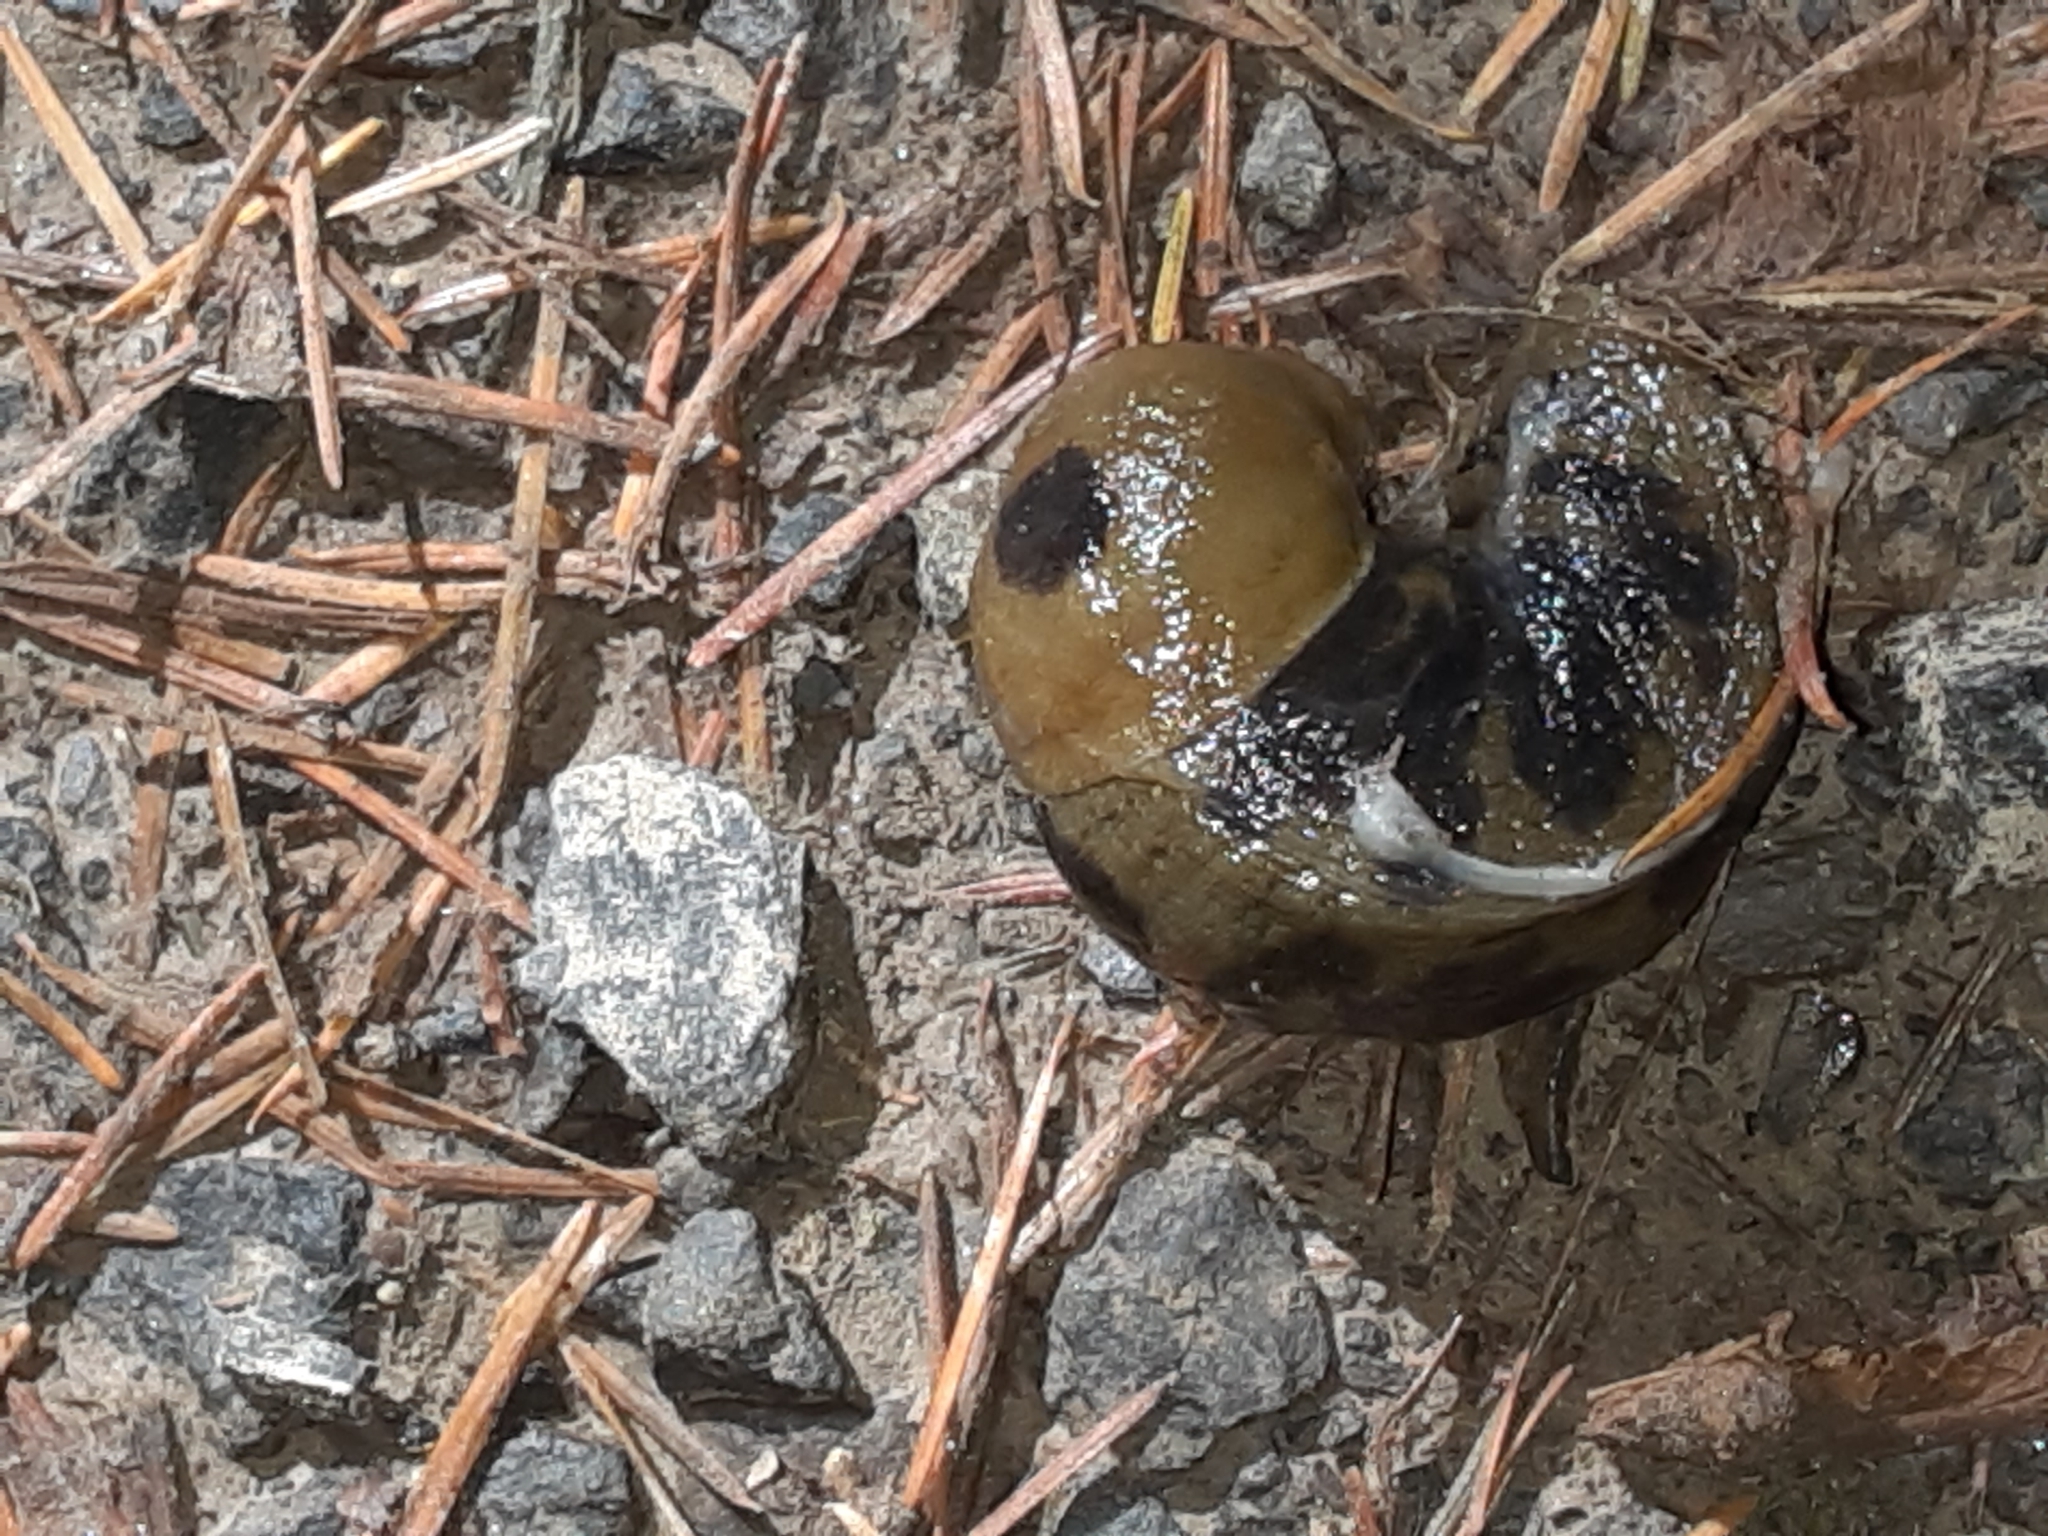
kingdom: Animalia
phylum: Mollusca
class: Gastropoda
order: Stylommatophora
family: Ariolimacidae
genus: Ariolimax
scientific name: Ariolimax columbianus
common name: Pacific banana slug
